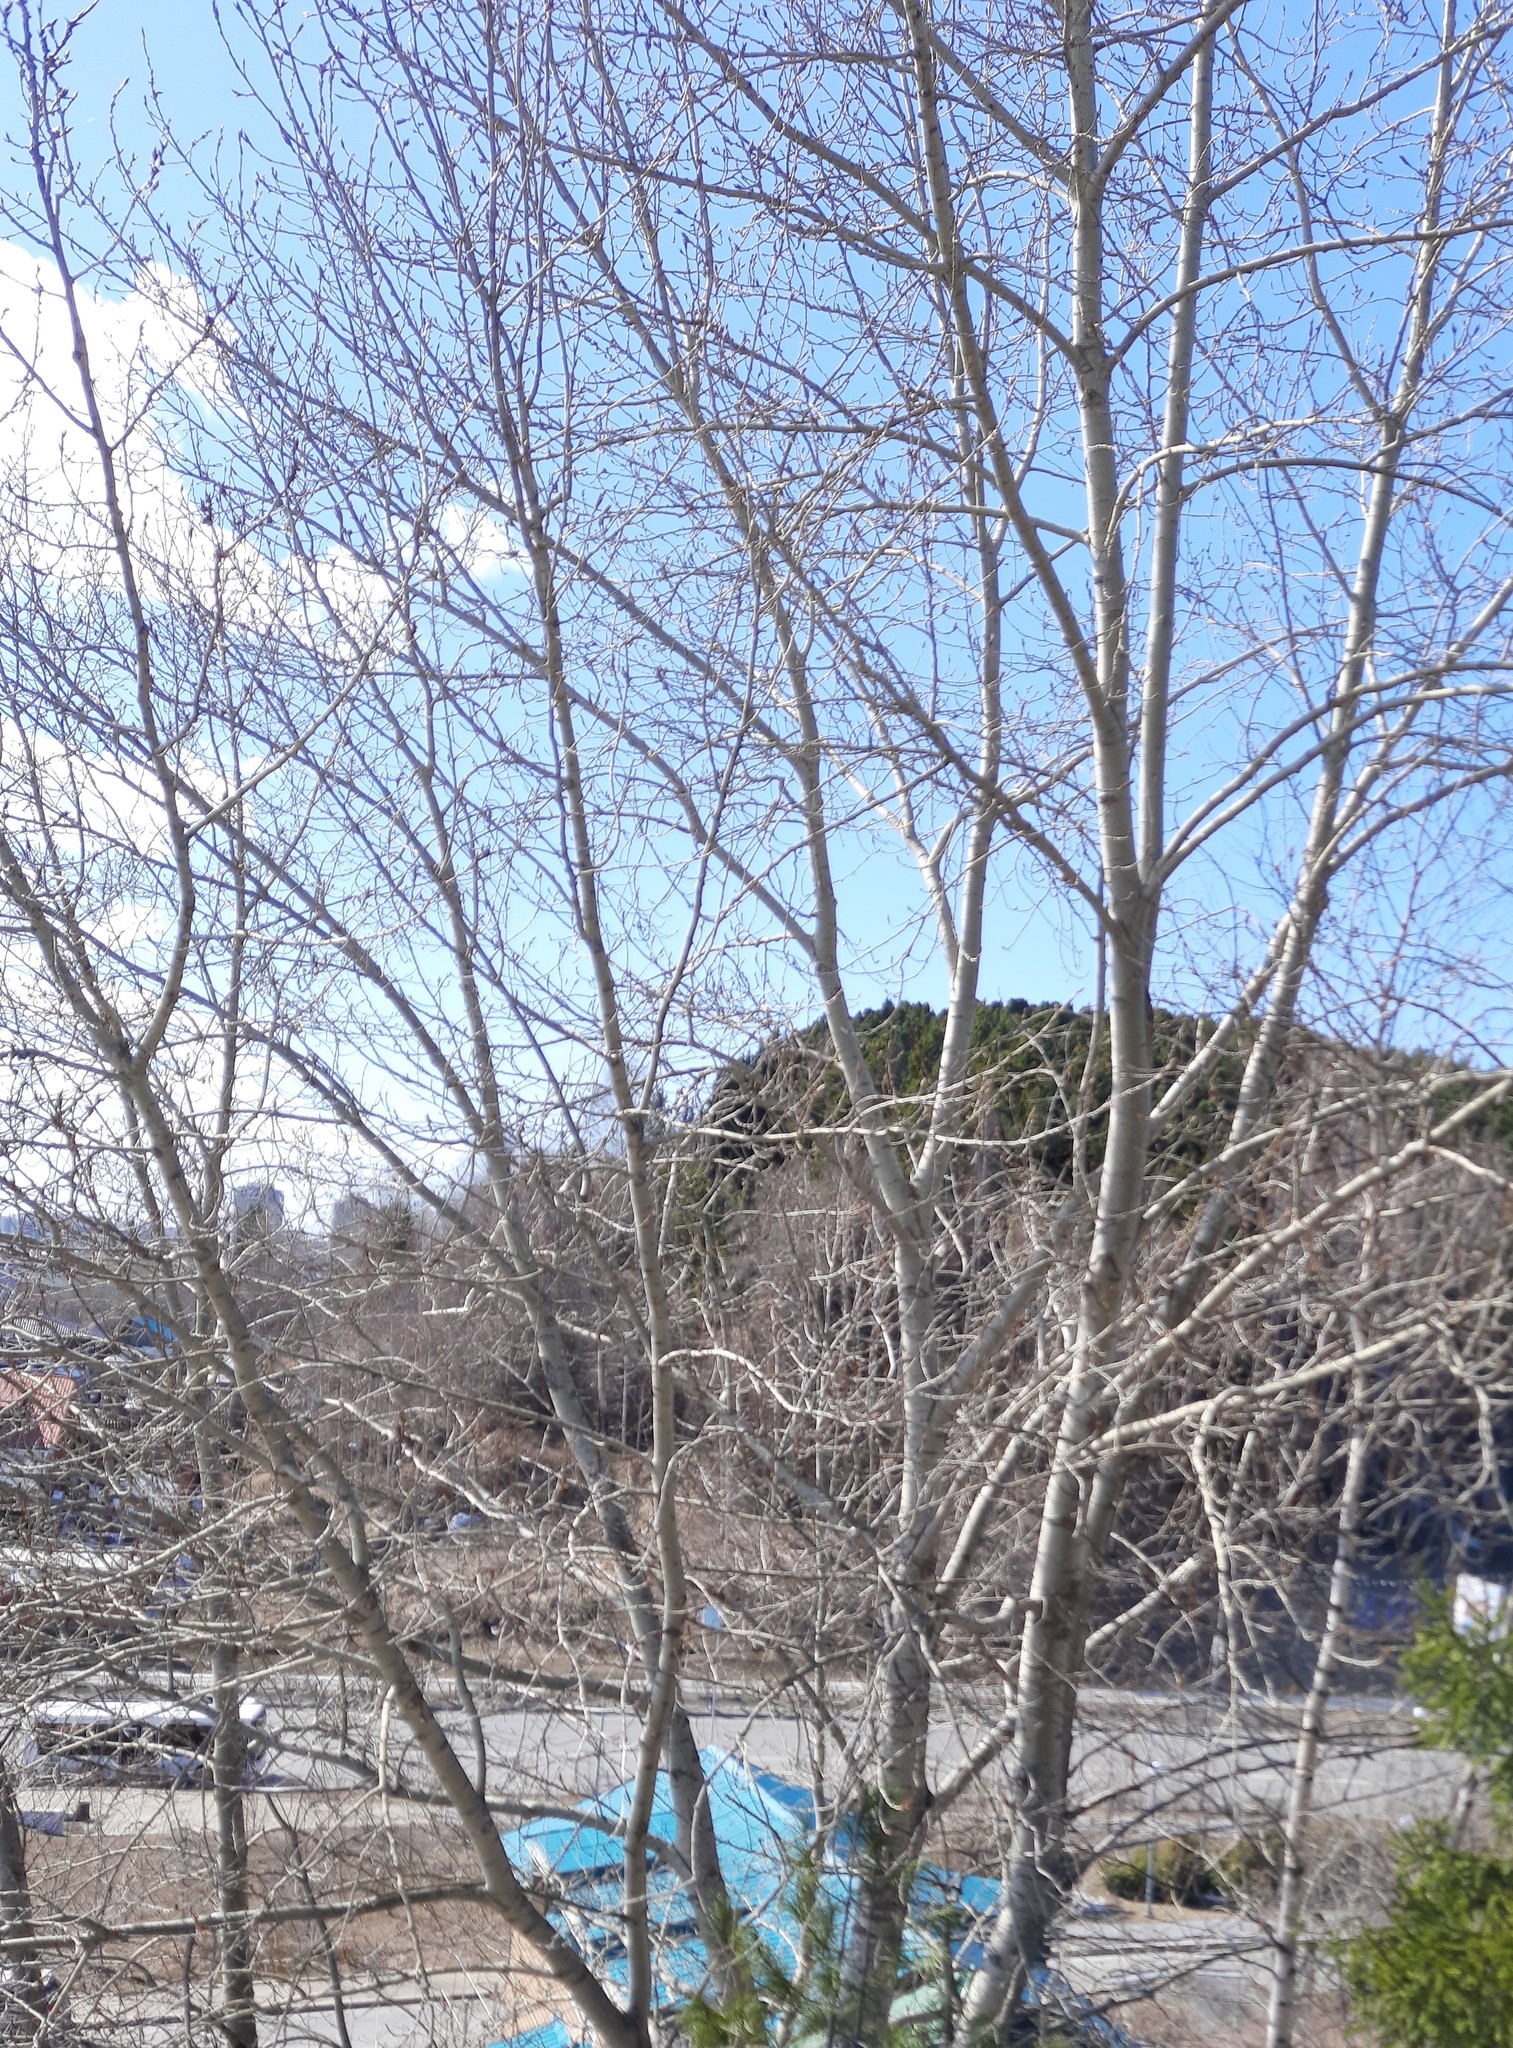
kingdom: Plantae
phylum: Tracheophyta
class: Magnoliopsida
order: Malpighiales
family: Salicaceae
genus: Populus
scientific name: Populus sibirica
